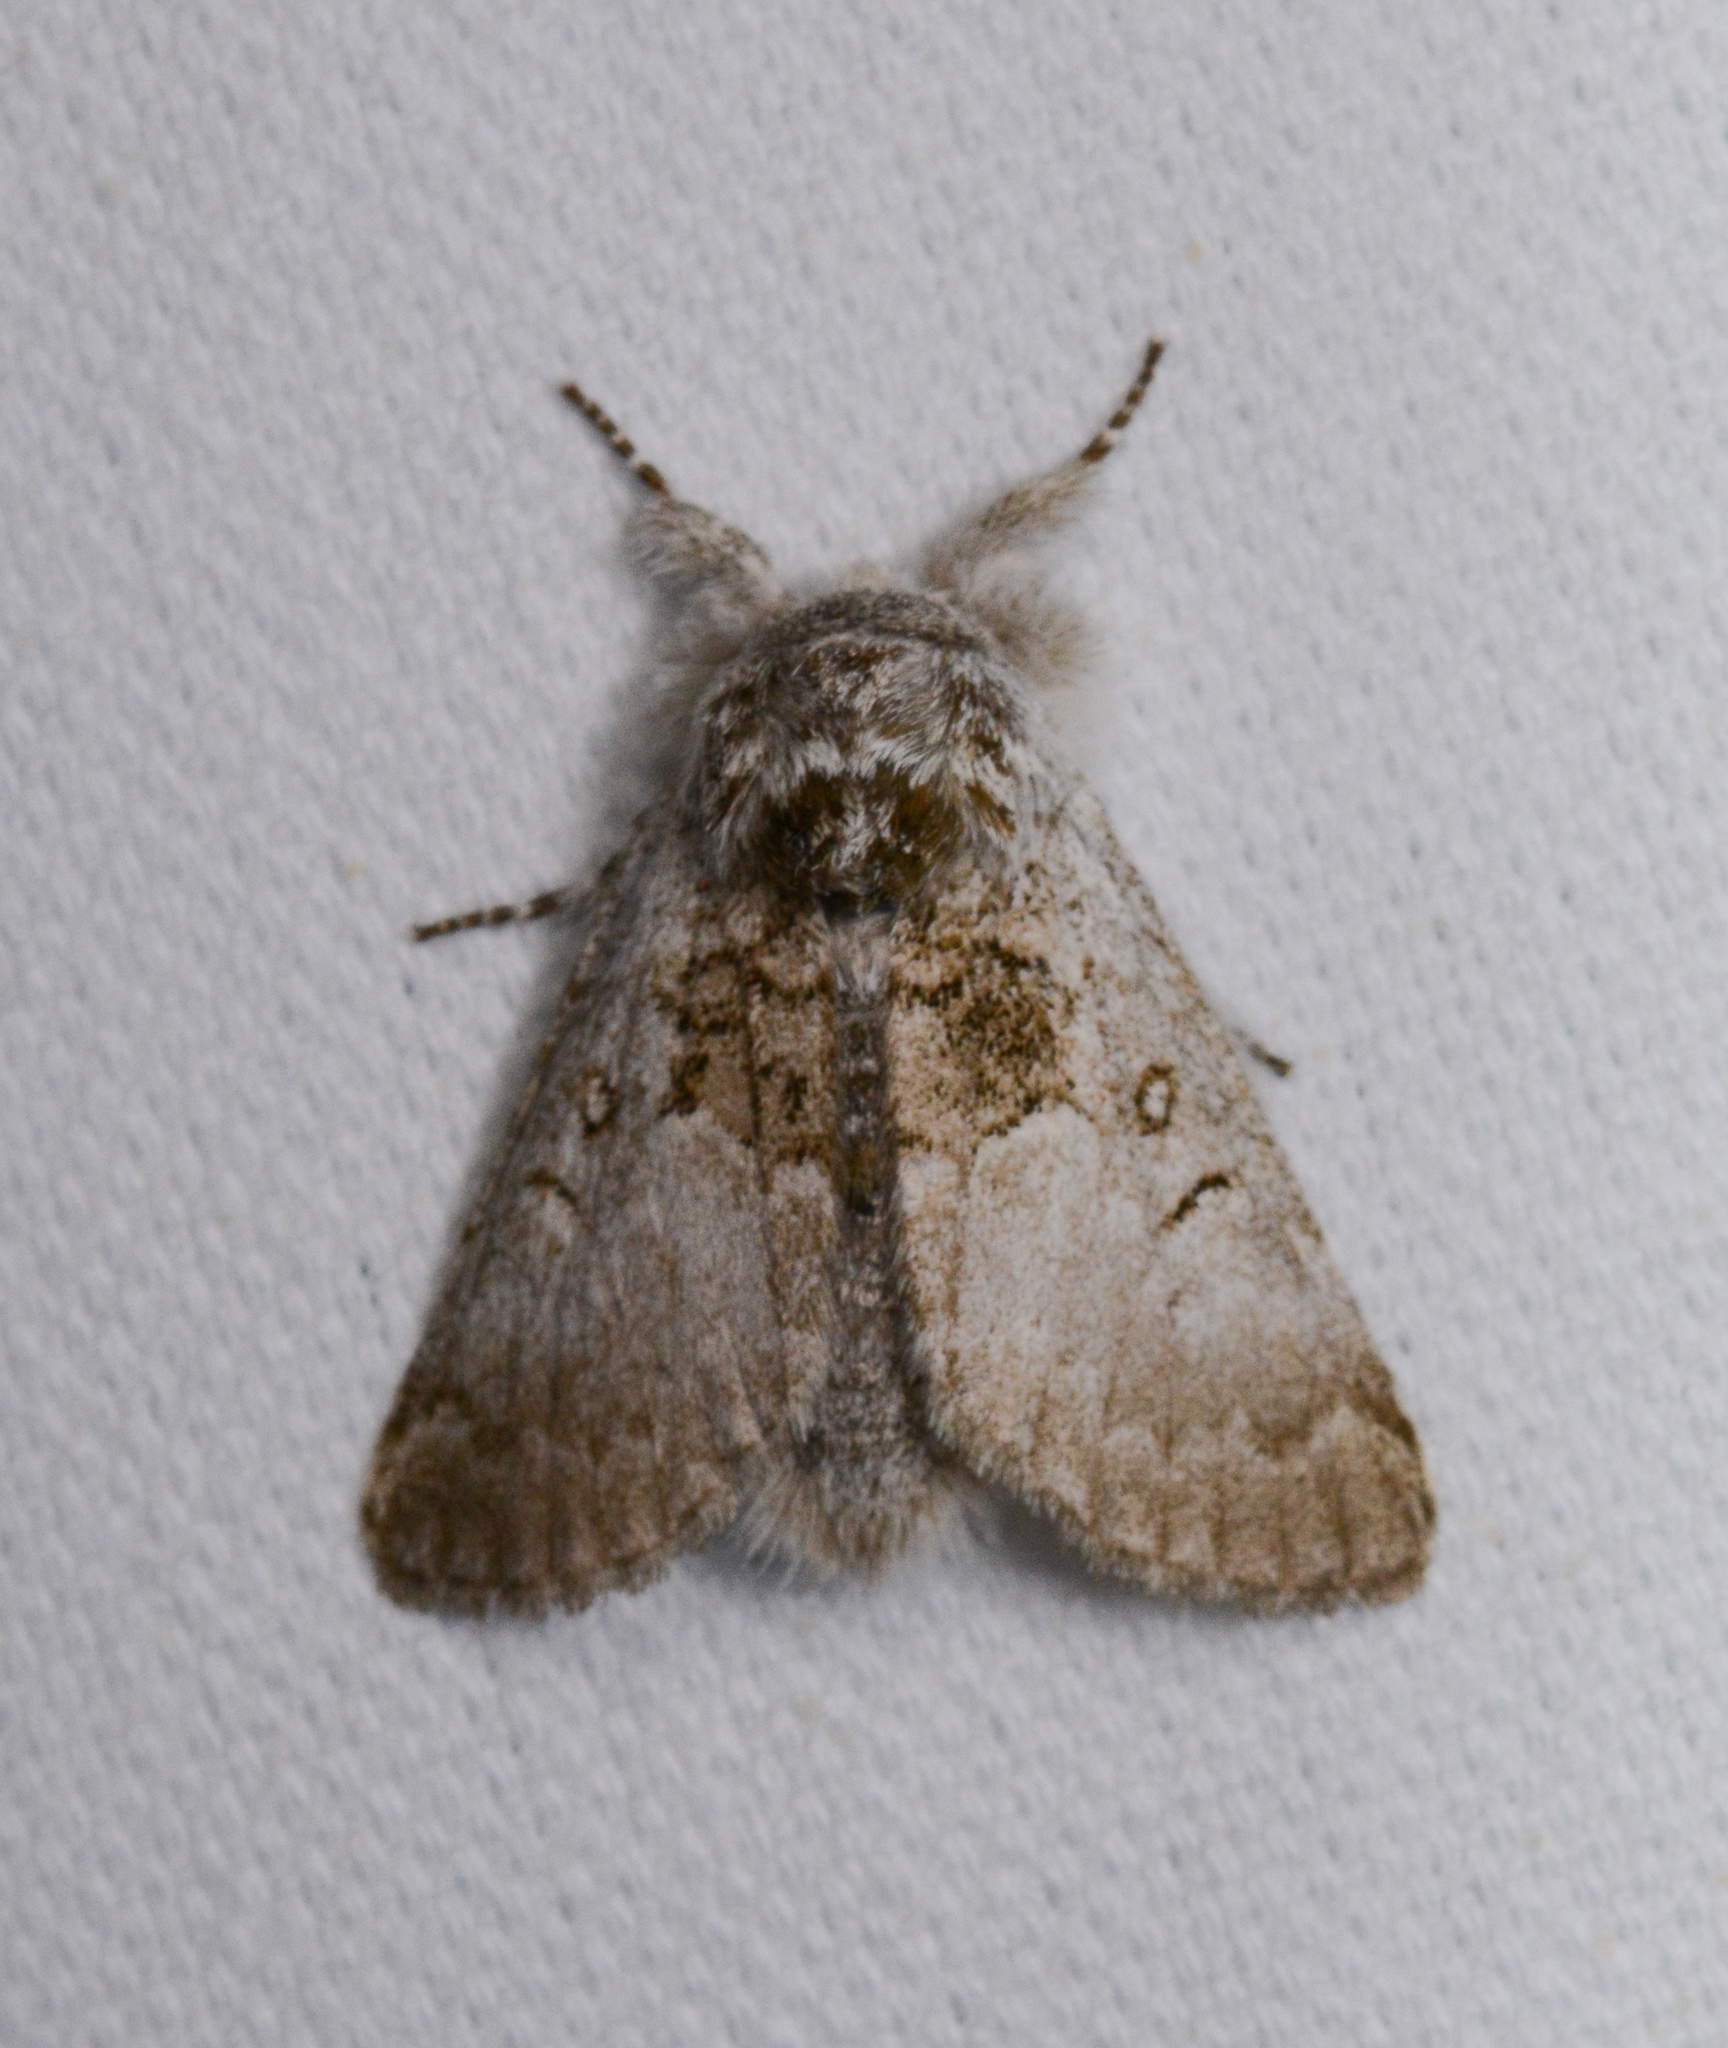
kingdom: Animalia
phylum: Arthropoda
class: Insecta
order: Lepidoptera
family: Noctuidae
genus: Colocasia
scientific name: Colocasia flavicornis
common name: Saddled yellowhorn
